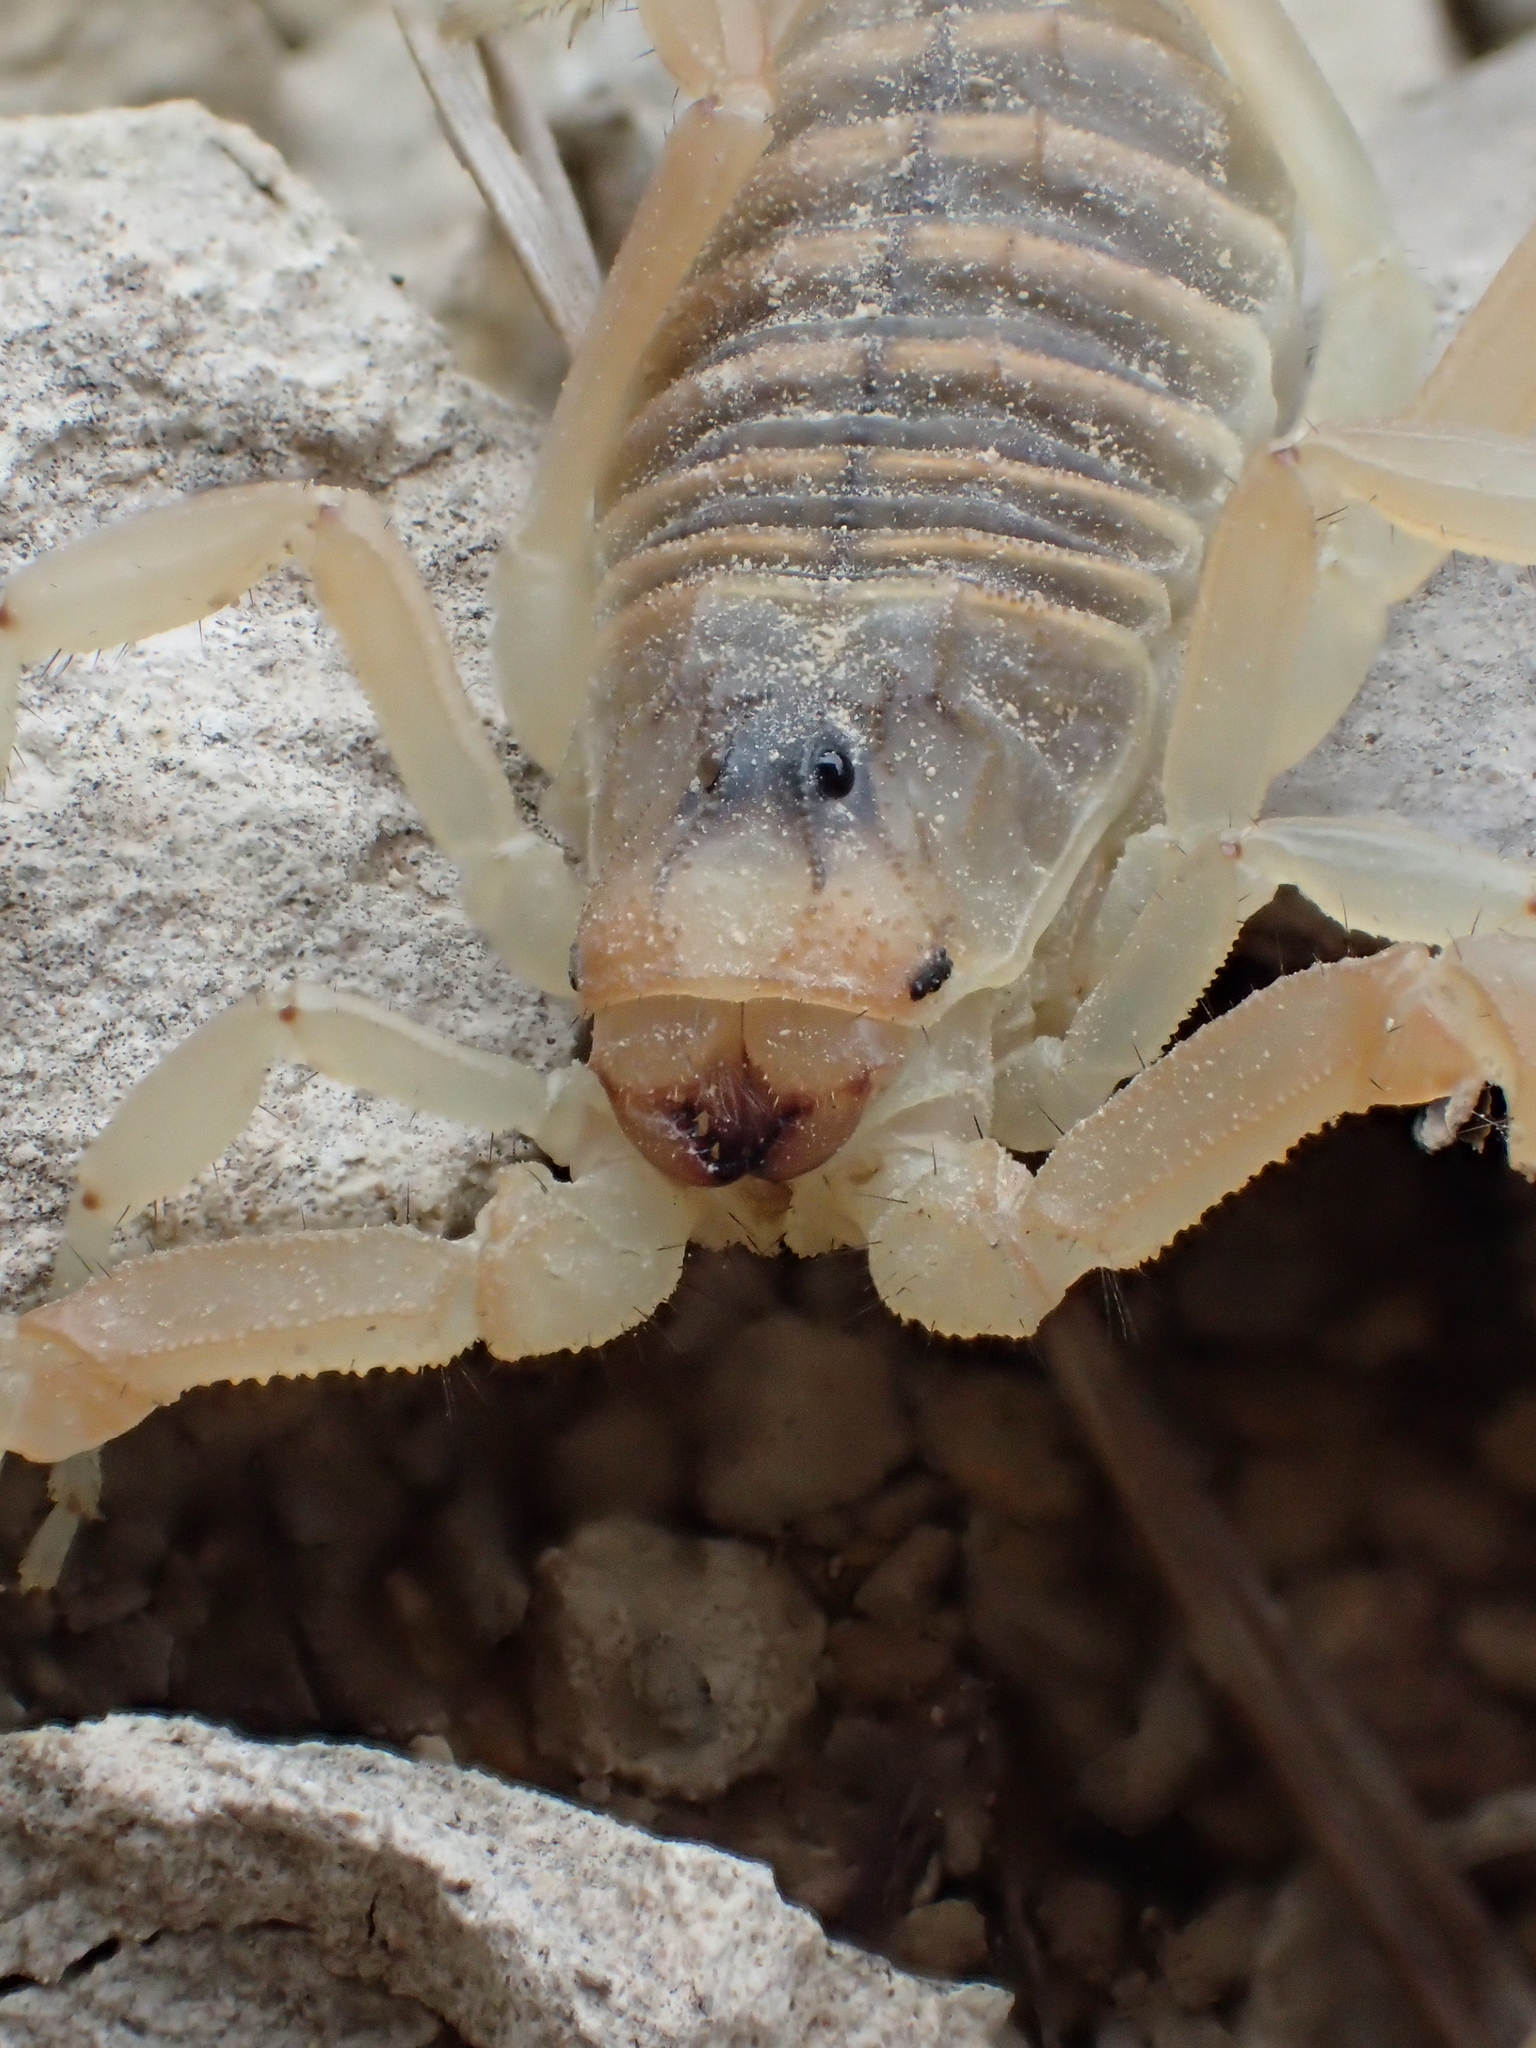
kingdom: Animalia
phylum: Arthropoda
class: Arachnida
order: Scorpiones
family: Buthidae
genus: Buthus
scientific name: Buthus occitanus
